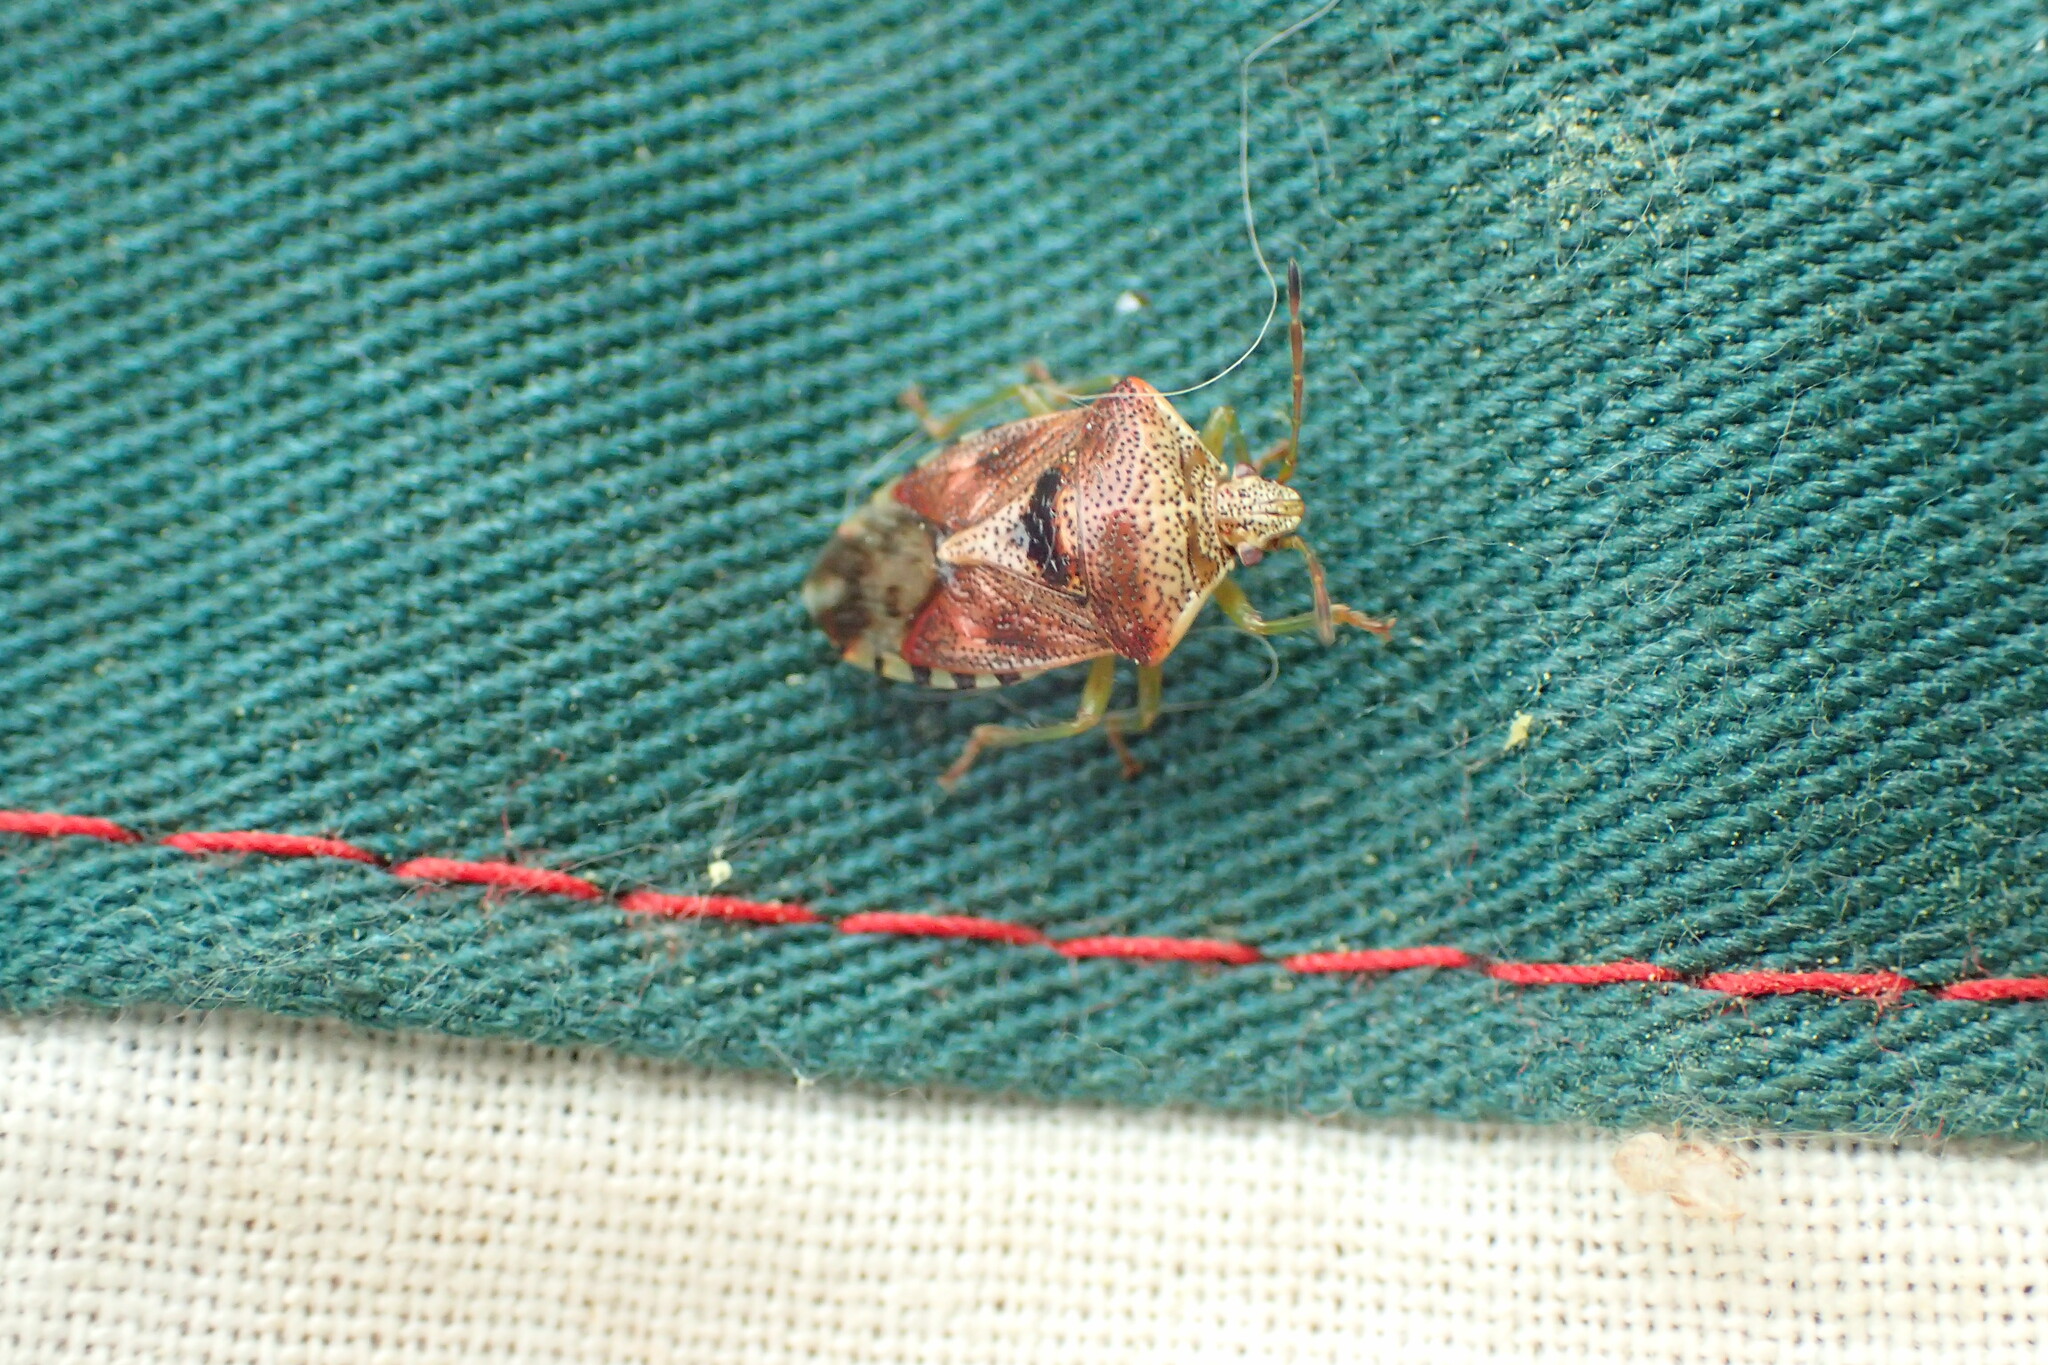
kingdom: Animalia
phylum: Arthropoda
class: Insecta
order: Hemiptera
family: Acanthosomatidae
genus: Elasmucha
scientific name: Elasmucha grisea
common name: Parent bug
